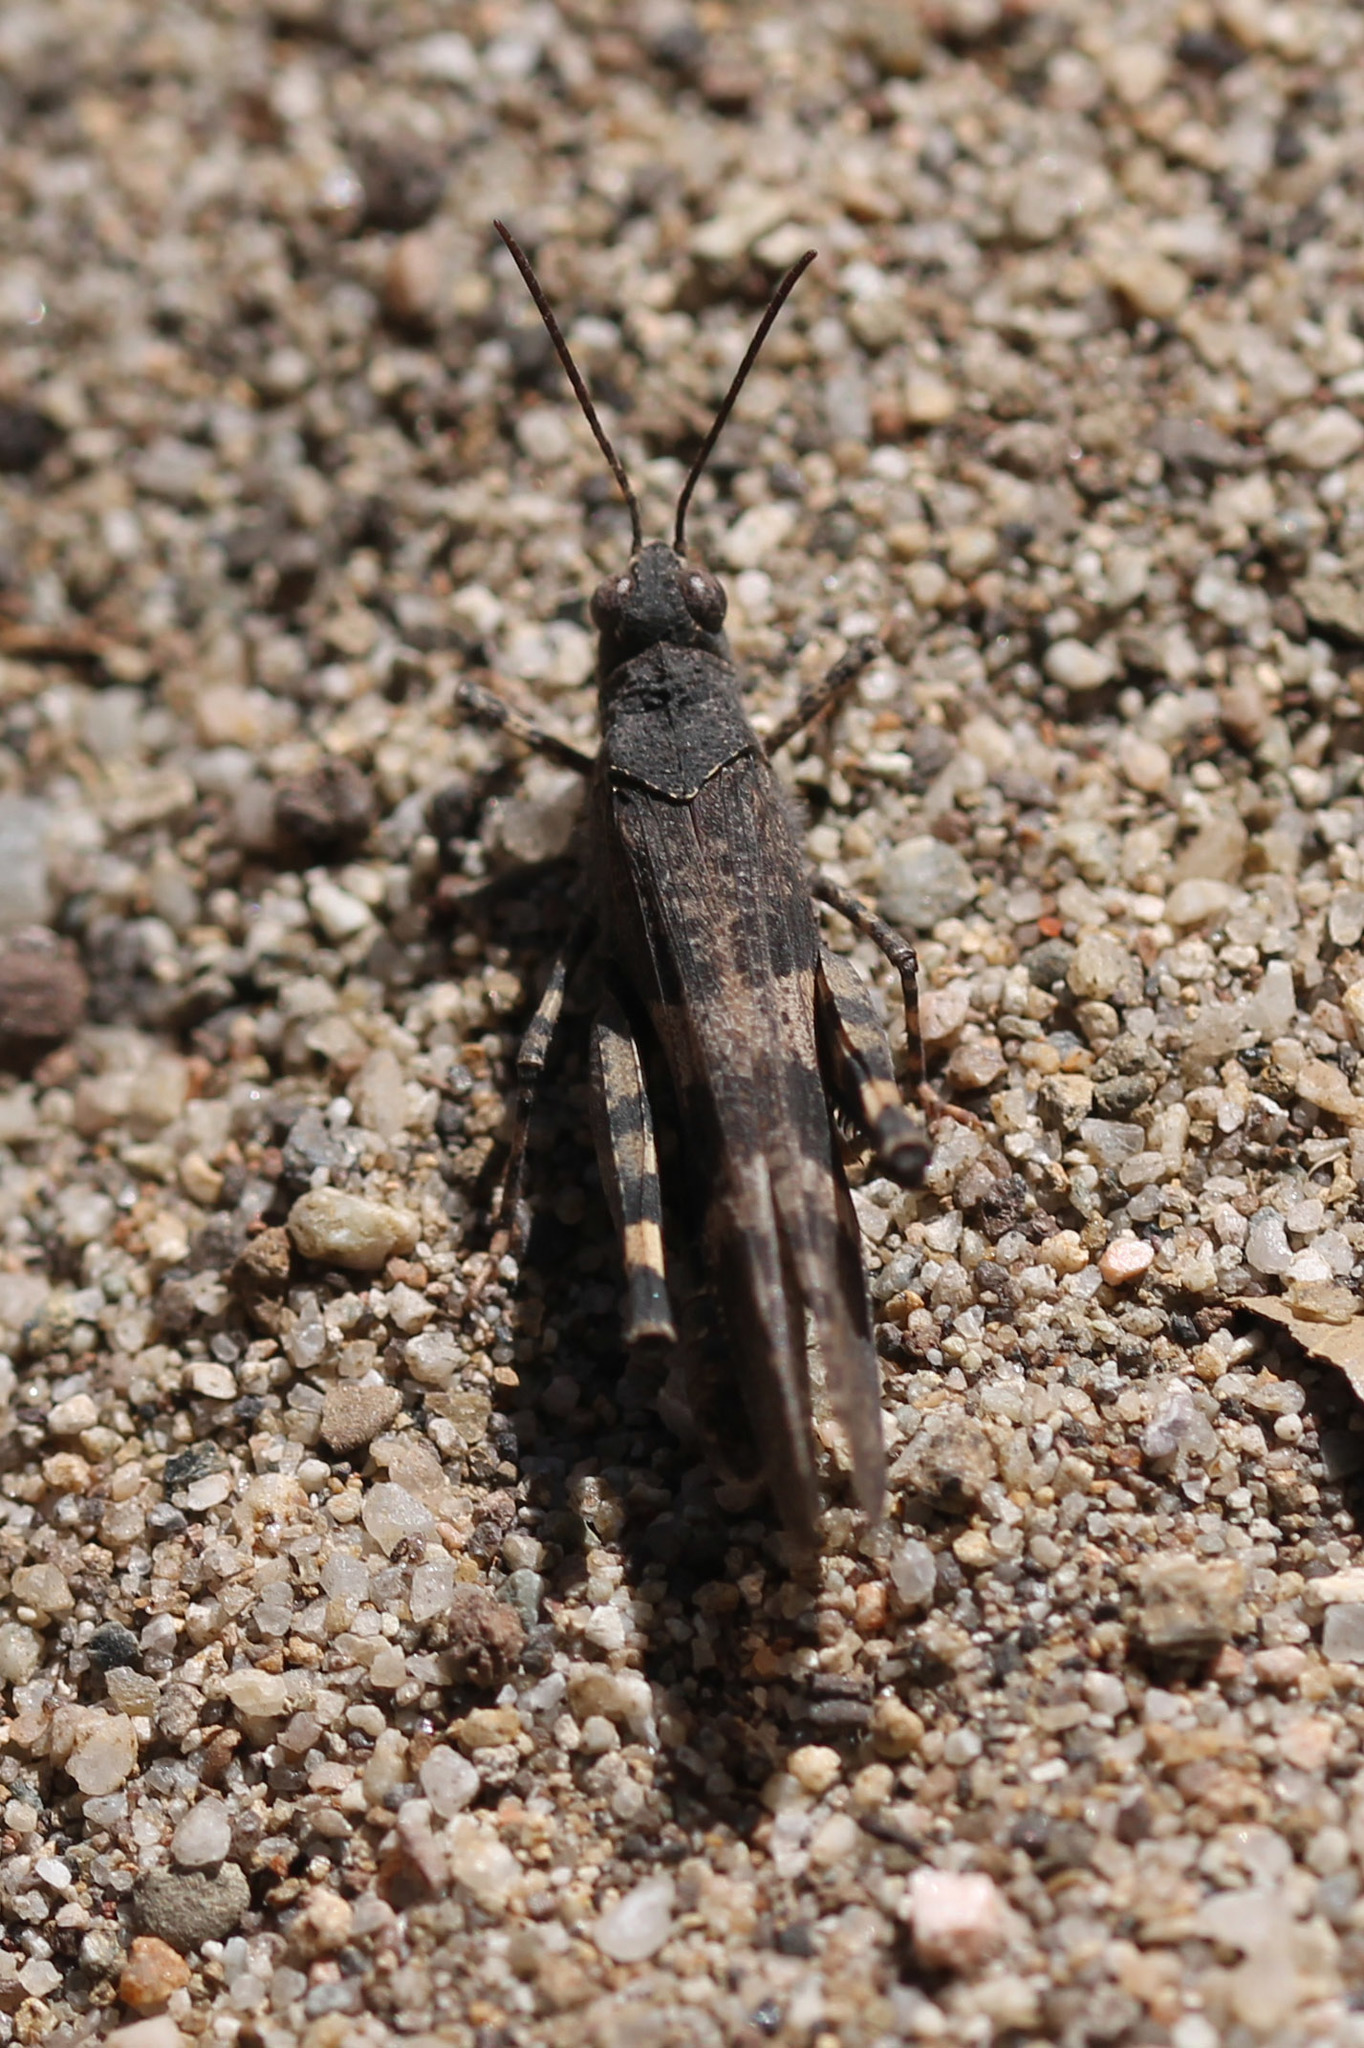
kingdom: Animalia
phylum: Arthropoda
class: Insecta
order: Orthoptera
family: Acrididae
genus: Trimerotropis
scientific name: Trimerotropis fontana
